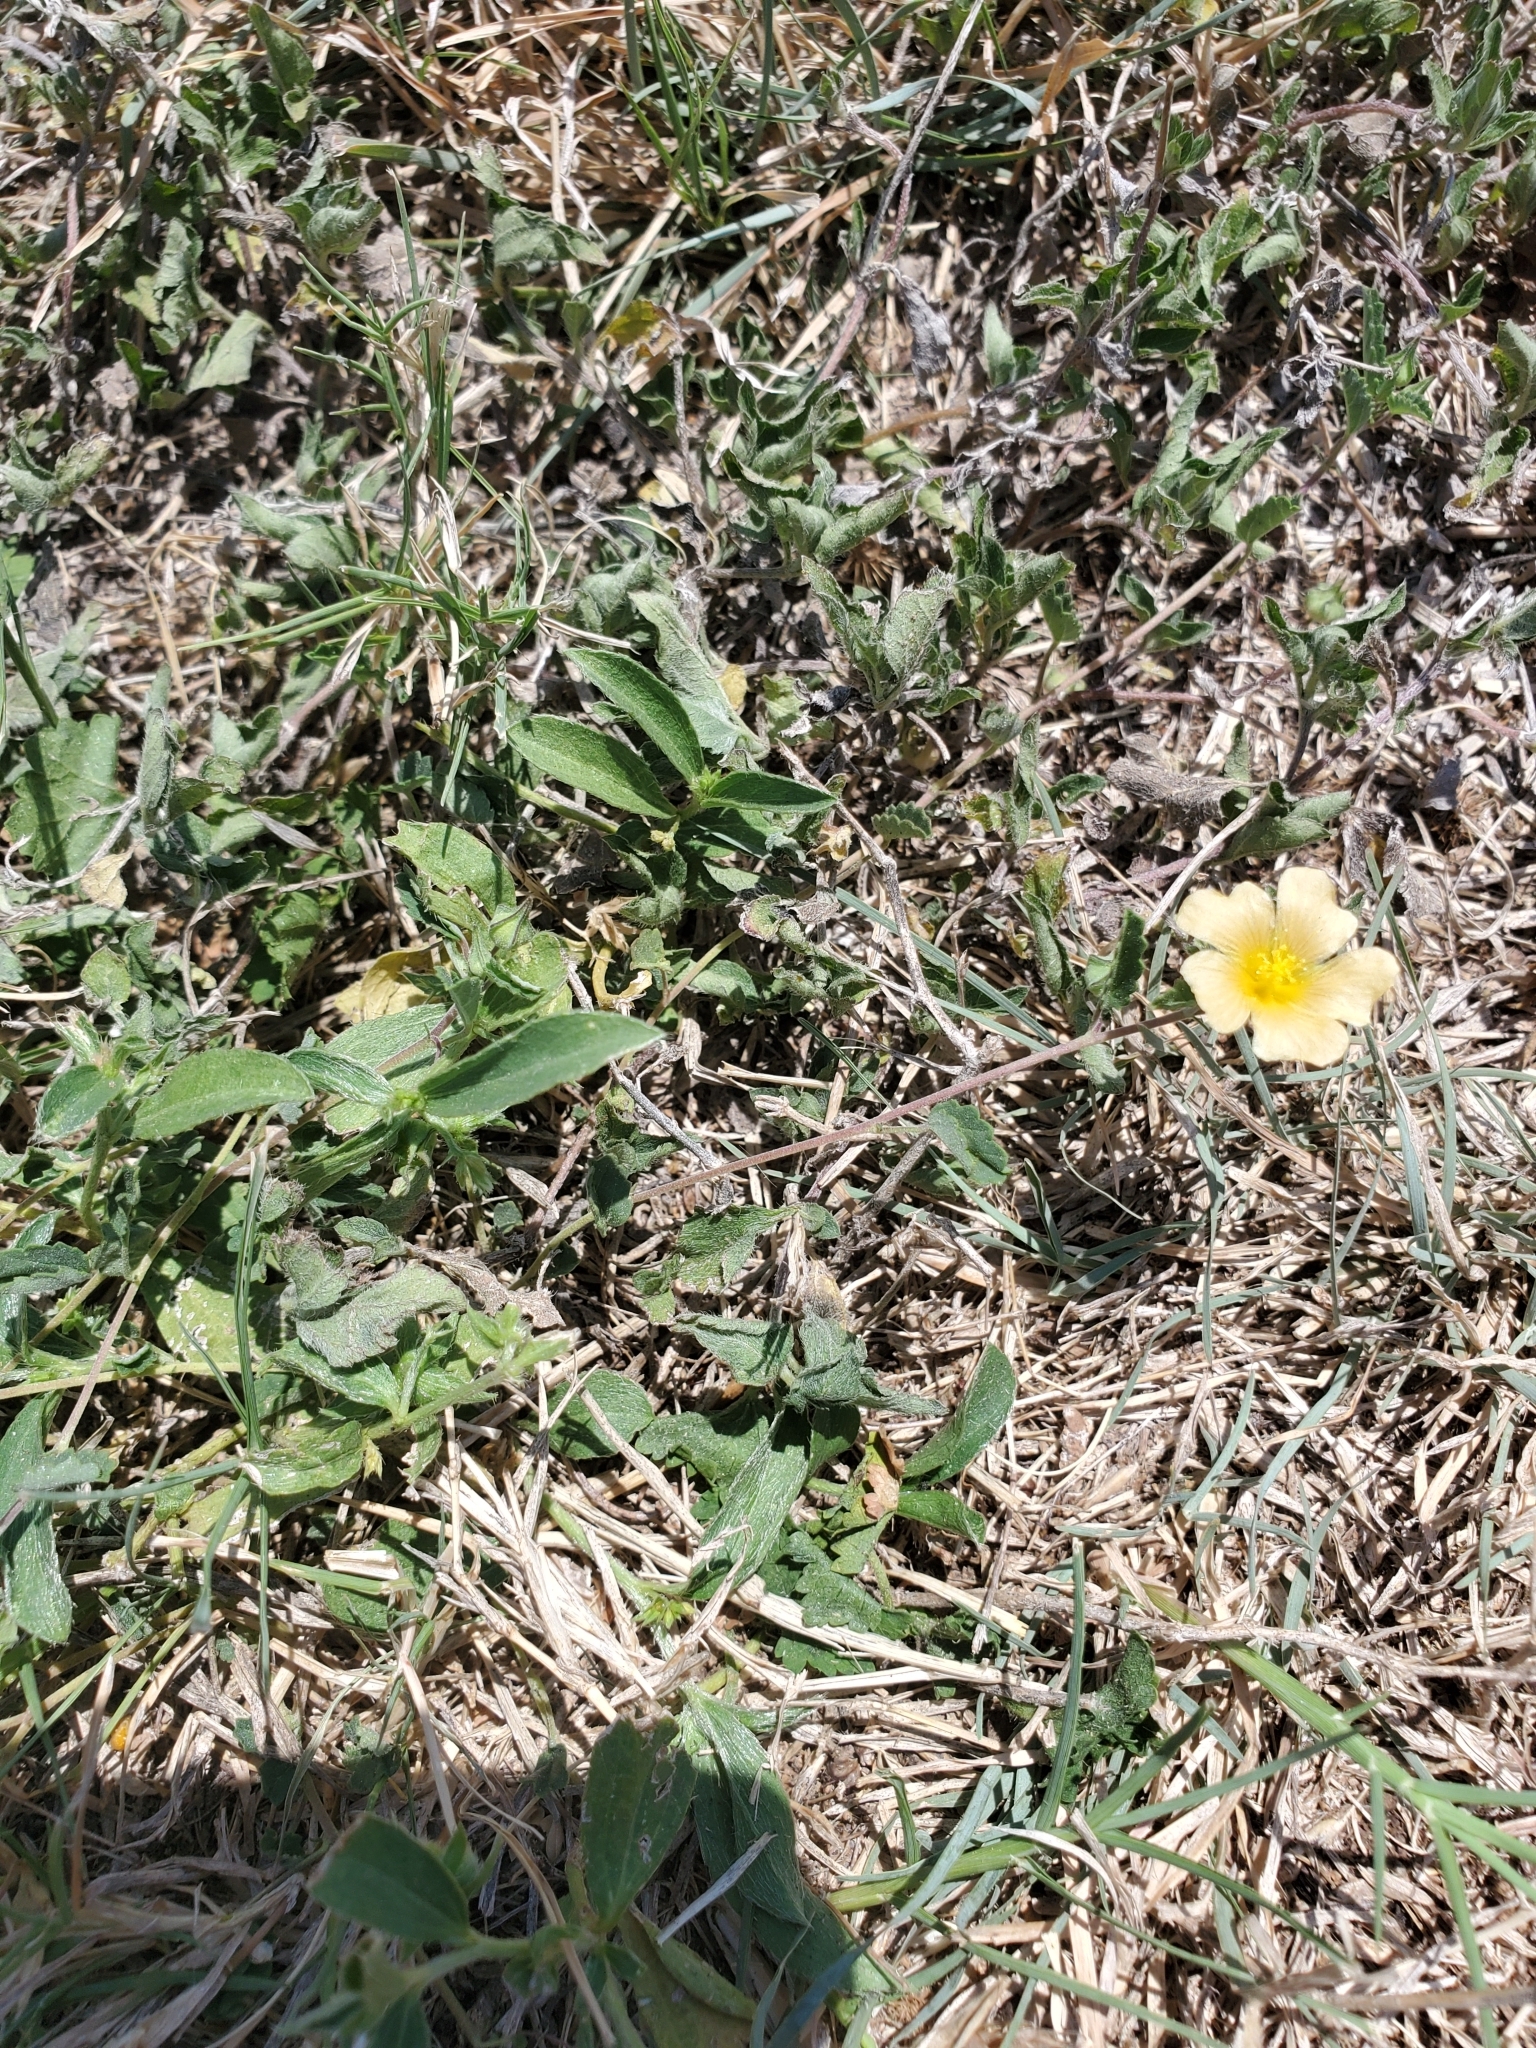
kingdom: Plantae
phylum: Tracheophyta
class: Magnoliopsida
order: Malvales
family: Malvaceae
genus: Sida
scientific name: Sida abutilifolia
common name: Spreading fanpetals
